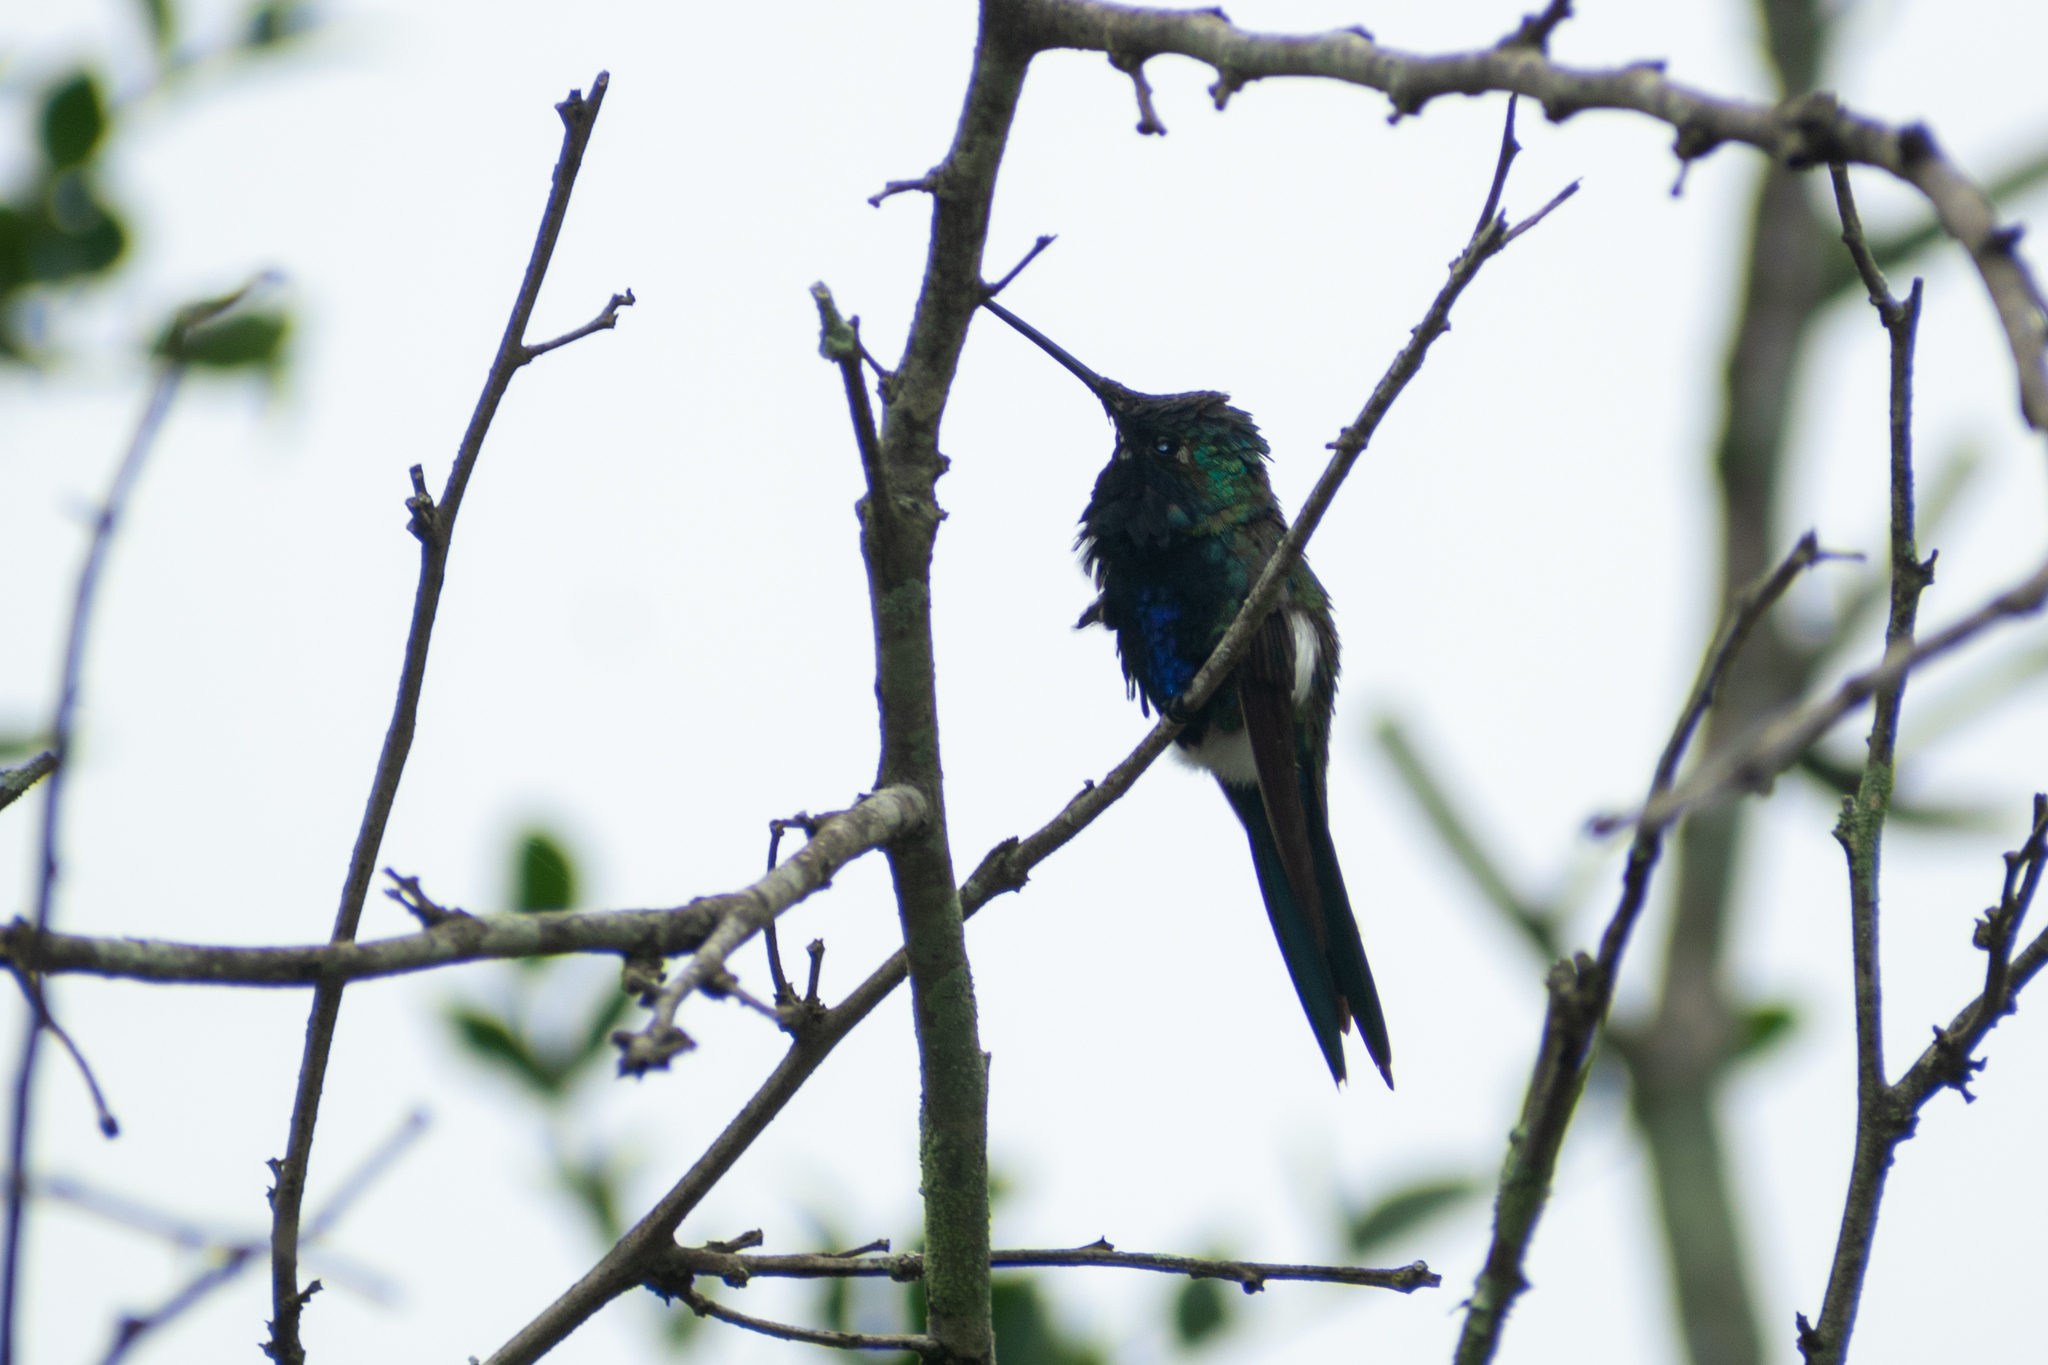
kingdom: Animalia
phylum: Chordata
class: Aves
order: Apodiformes
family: Trochilidae
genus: Heliomaster
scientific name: Heliomaster furcifer
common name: Blue-tufted starthroat
